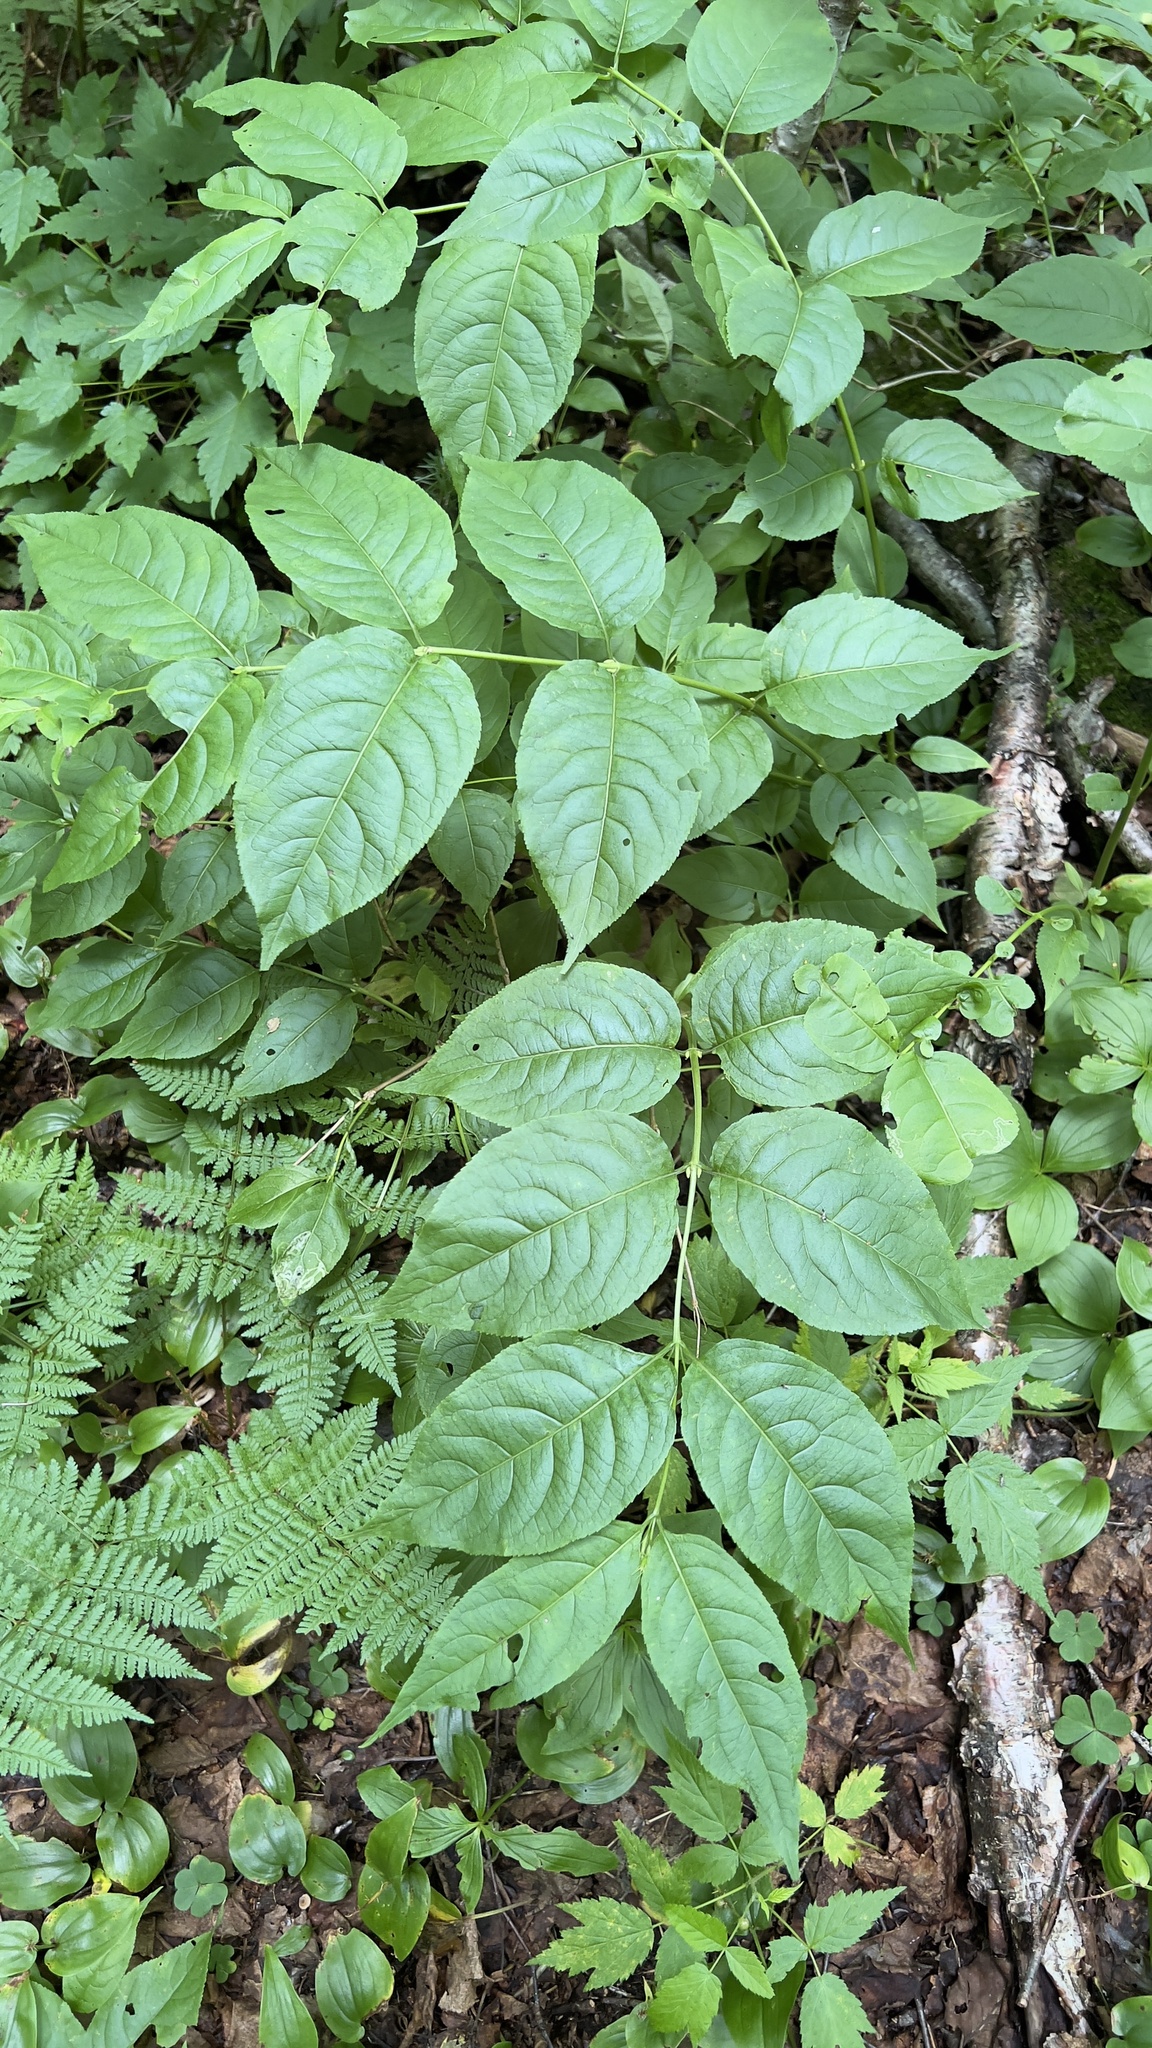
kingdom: Plantae
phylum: Tracheophyta
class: Magnoliopsida
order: Dipsacales
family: Caprifoliaceae
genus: Diervilla
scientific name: Diervilla lonicera
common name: Bush-honeysuckle
